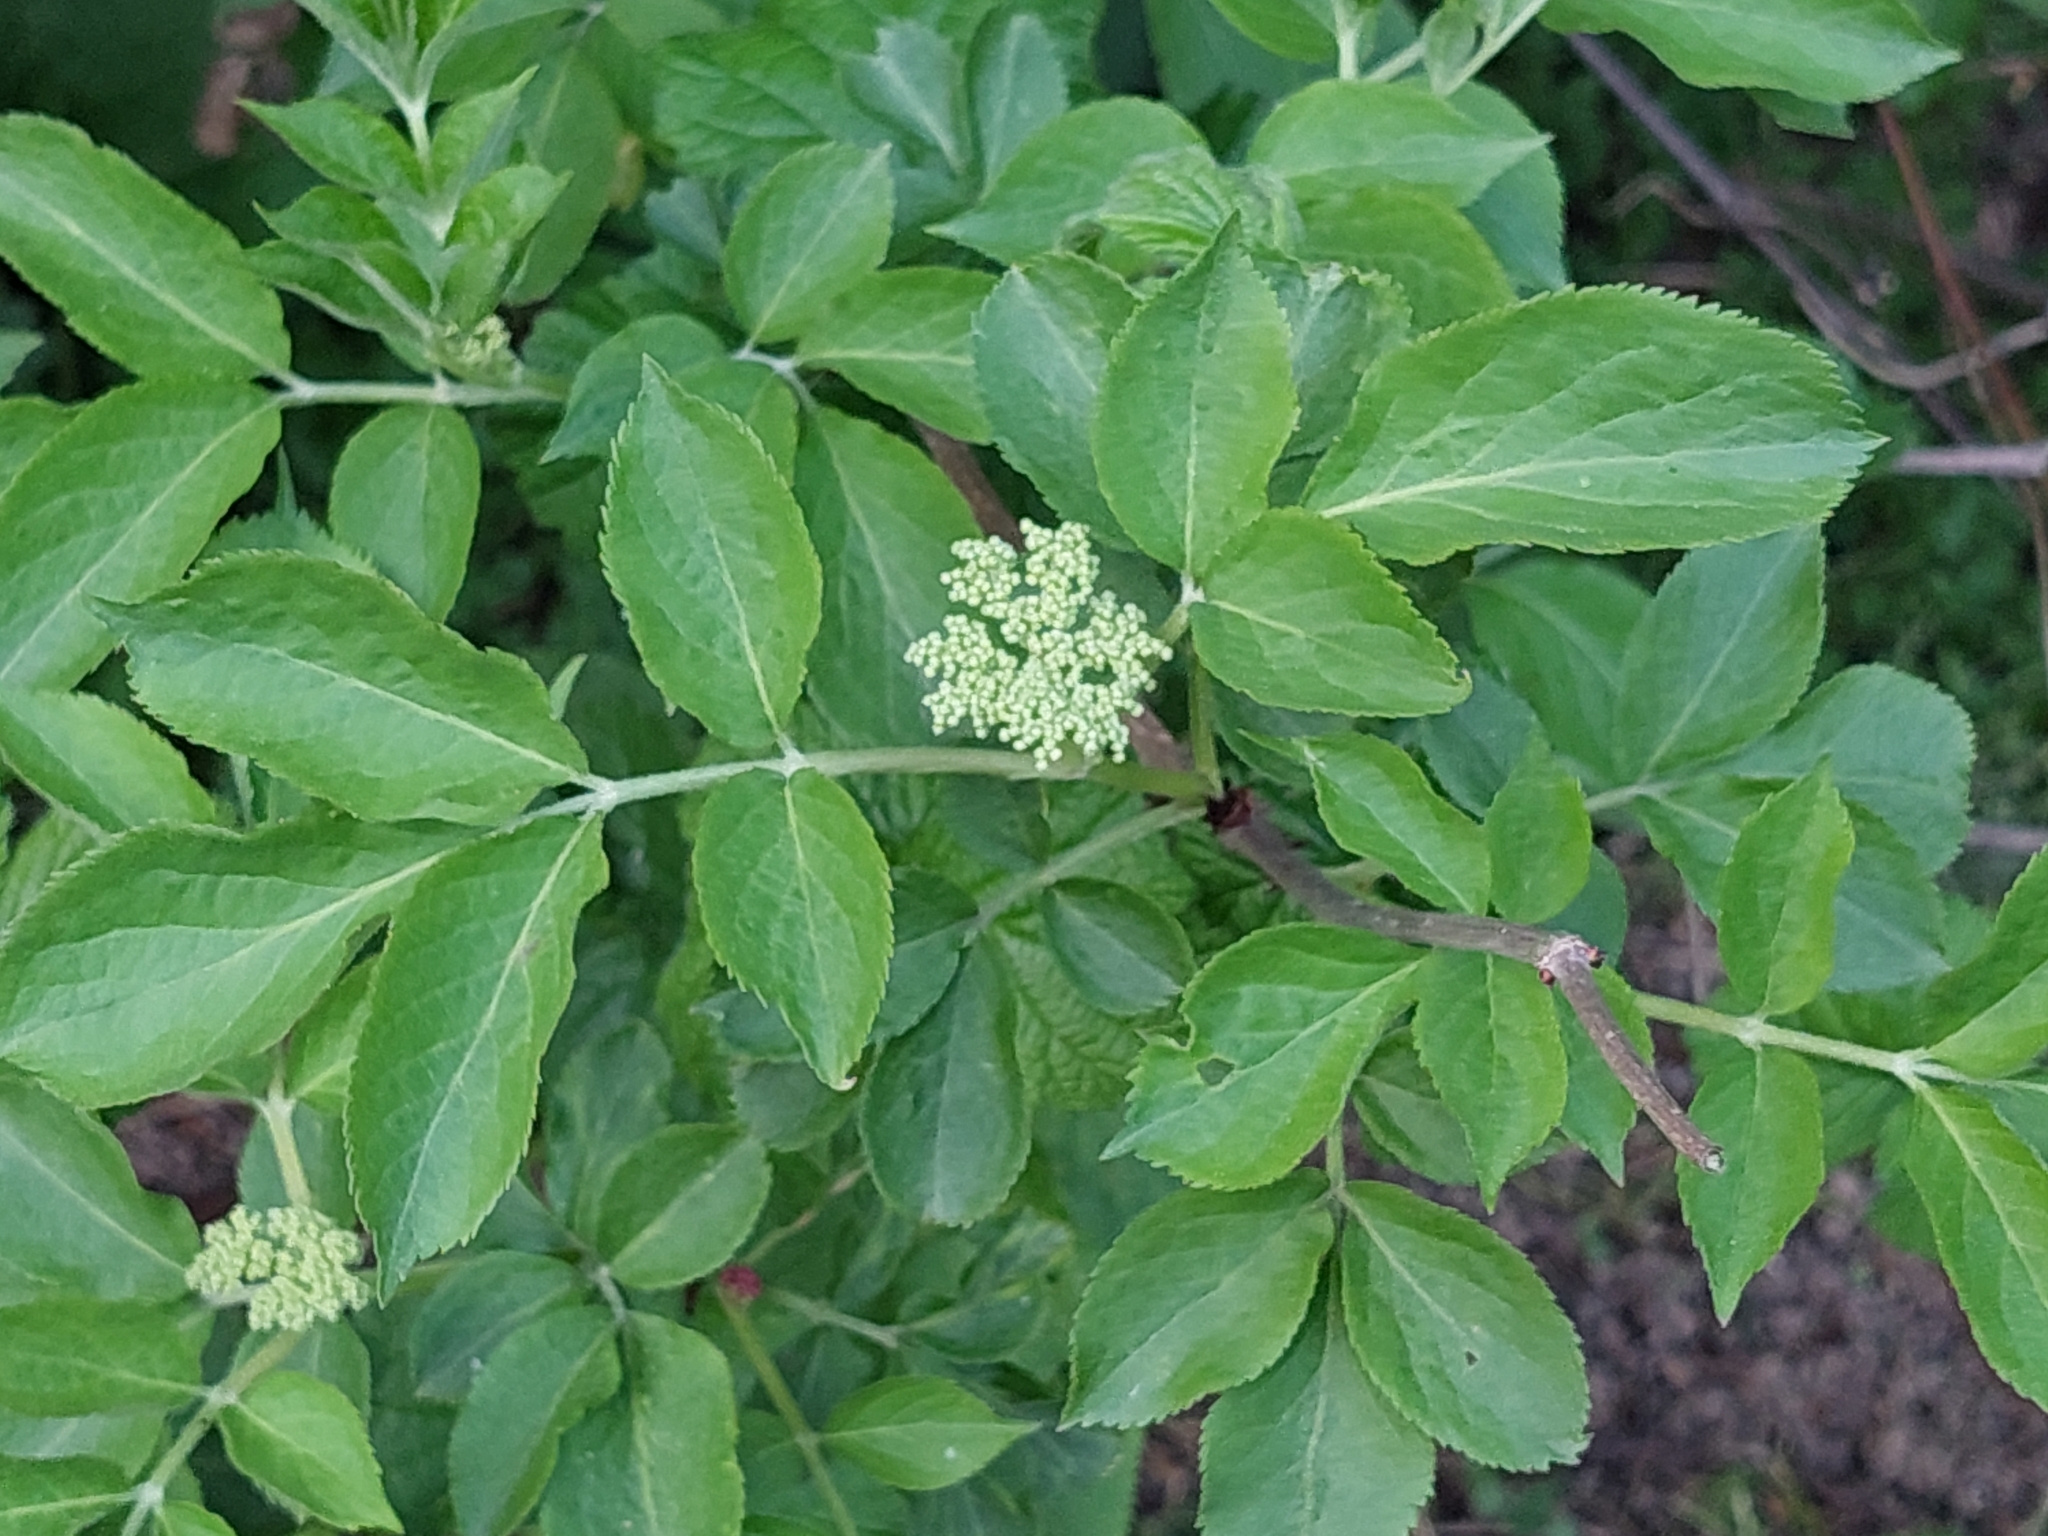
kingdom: Plantae
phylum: Tracheophyta
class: Magnoliopsida
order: Dipsacales
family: Viburnaceae
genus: Sambucus
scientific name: Sambucus nigra
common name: Elder
